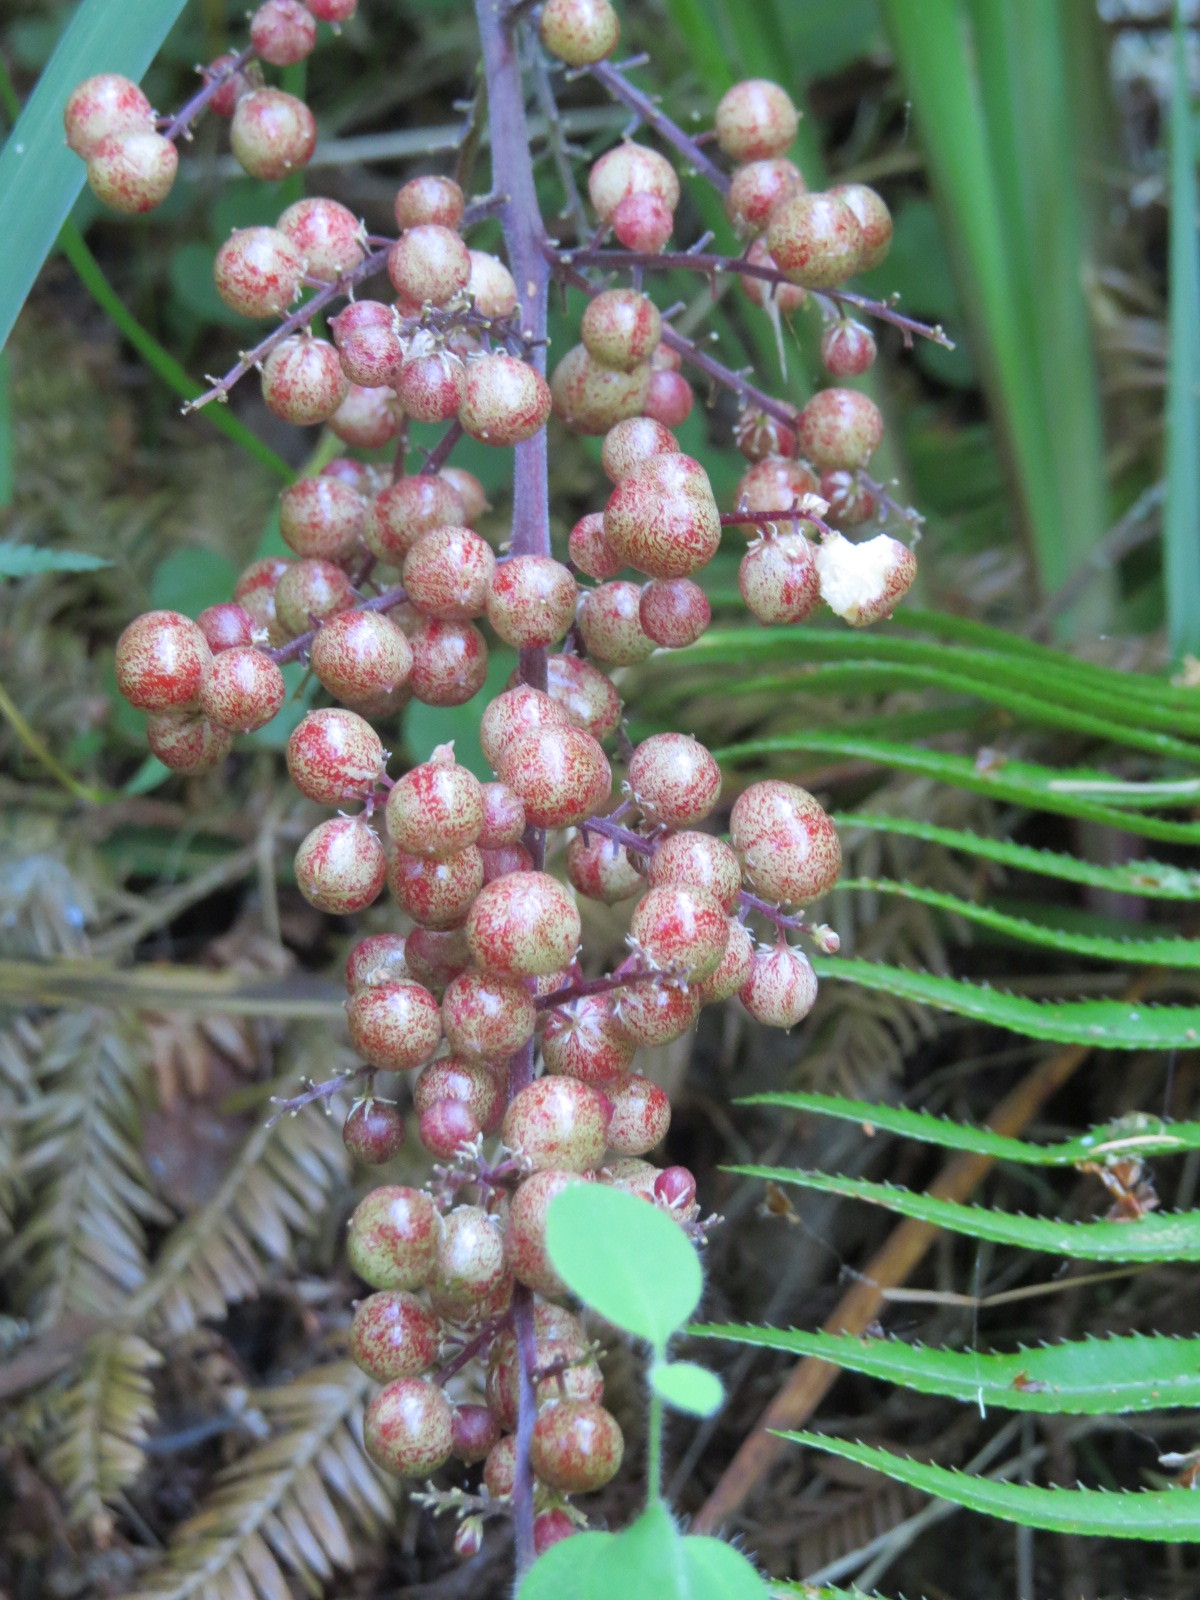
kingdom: Plantae
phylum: Tracheophyta
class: Liliopsida
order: Asparagales
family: Asparagaceae
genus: Maianthemum
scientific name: Maianthemum racemosum
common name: False spikenard
